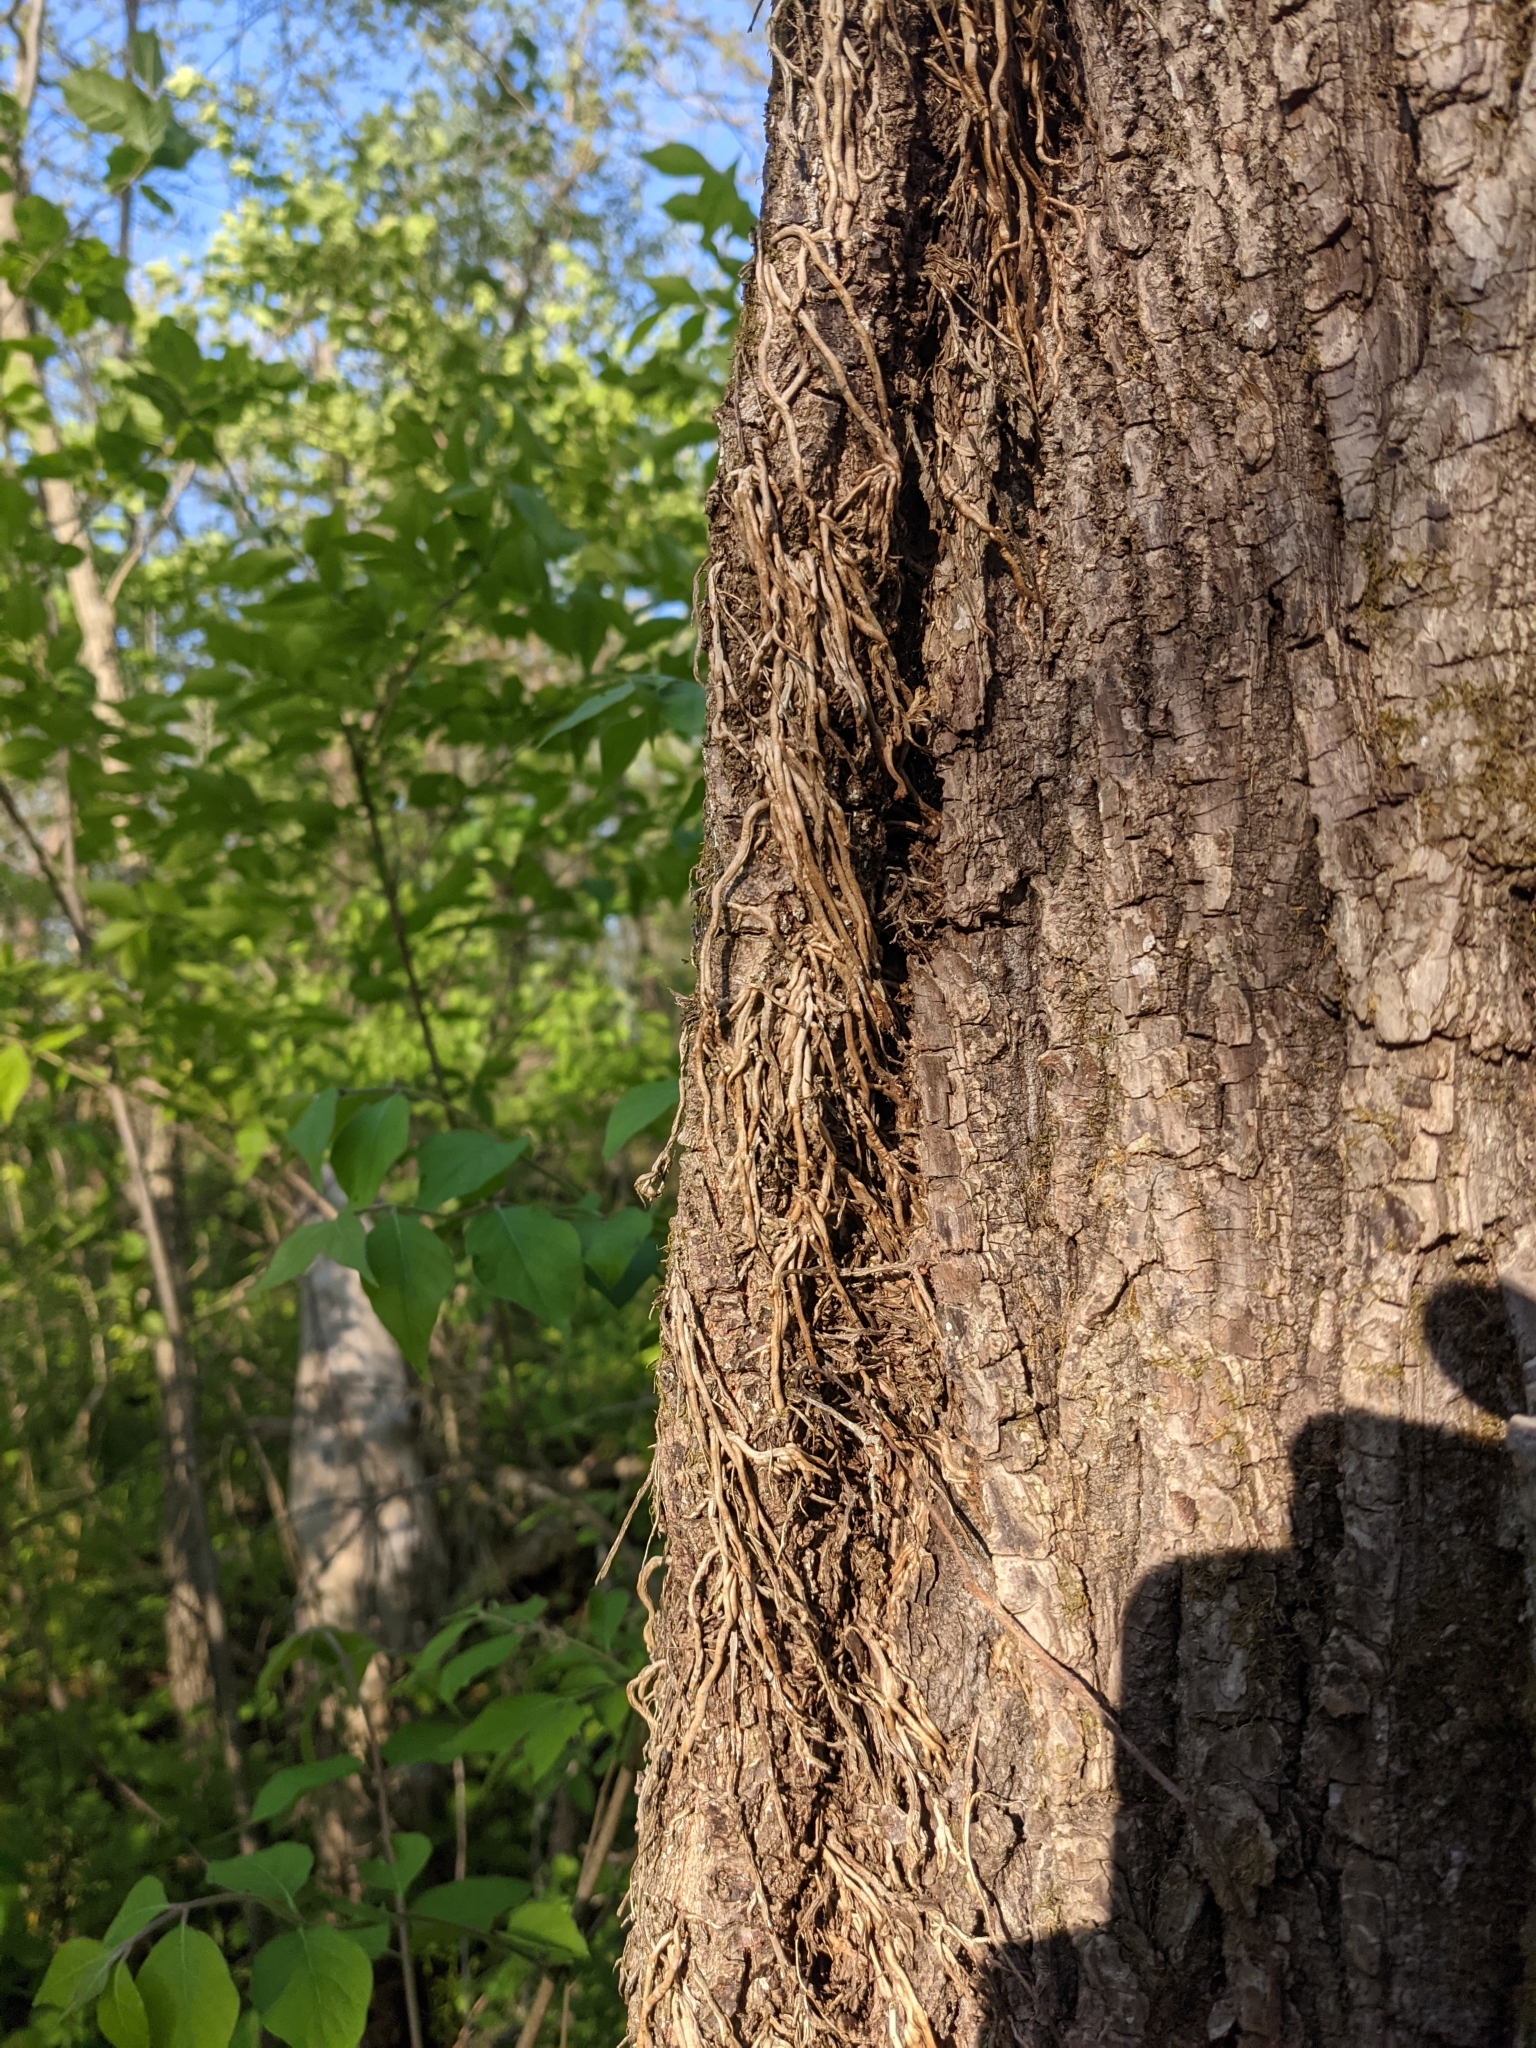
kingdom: Plantae
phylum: Tracheophyta
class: Magnoliopsida
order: Sapindales
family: Anacardiaceae
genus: Toxicodendron
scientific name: Toxicodendron radicans
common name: Poison ivy
